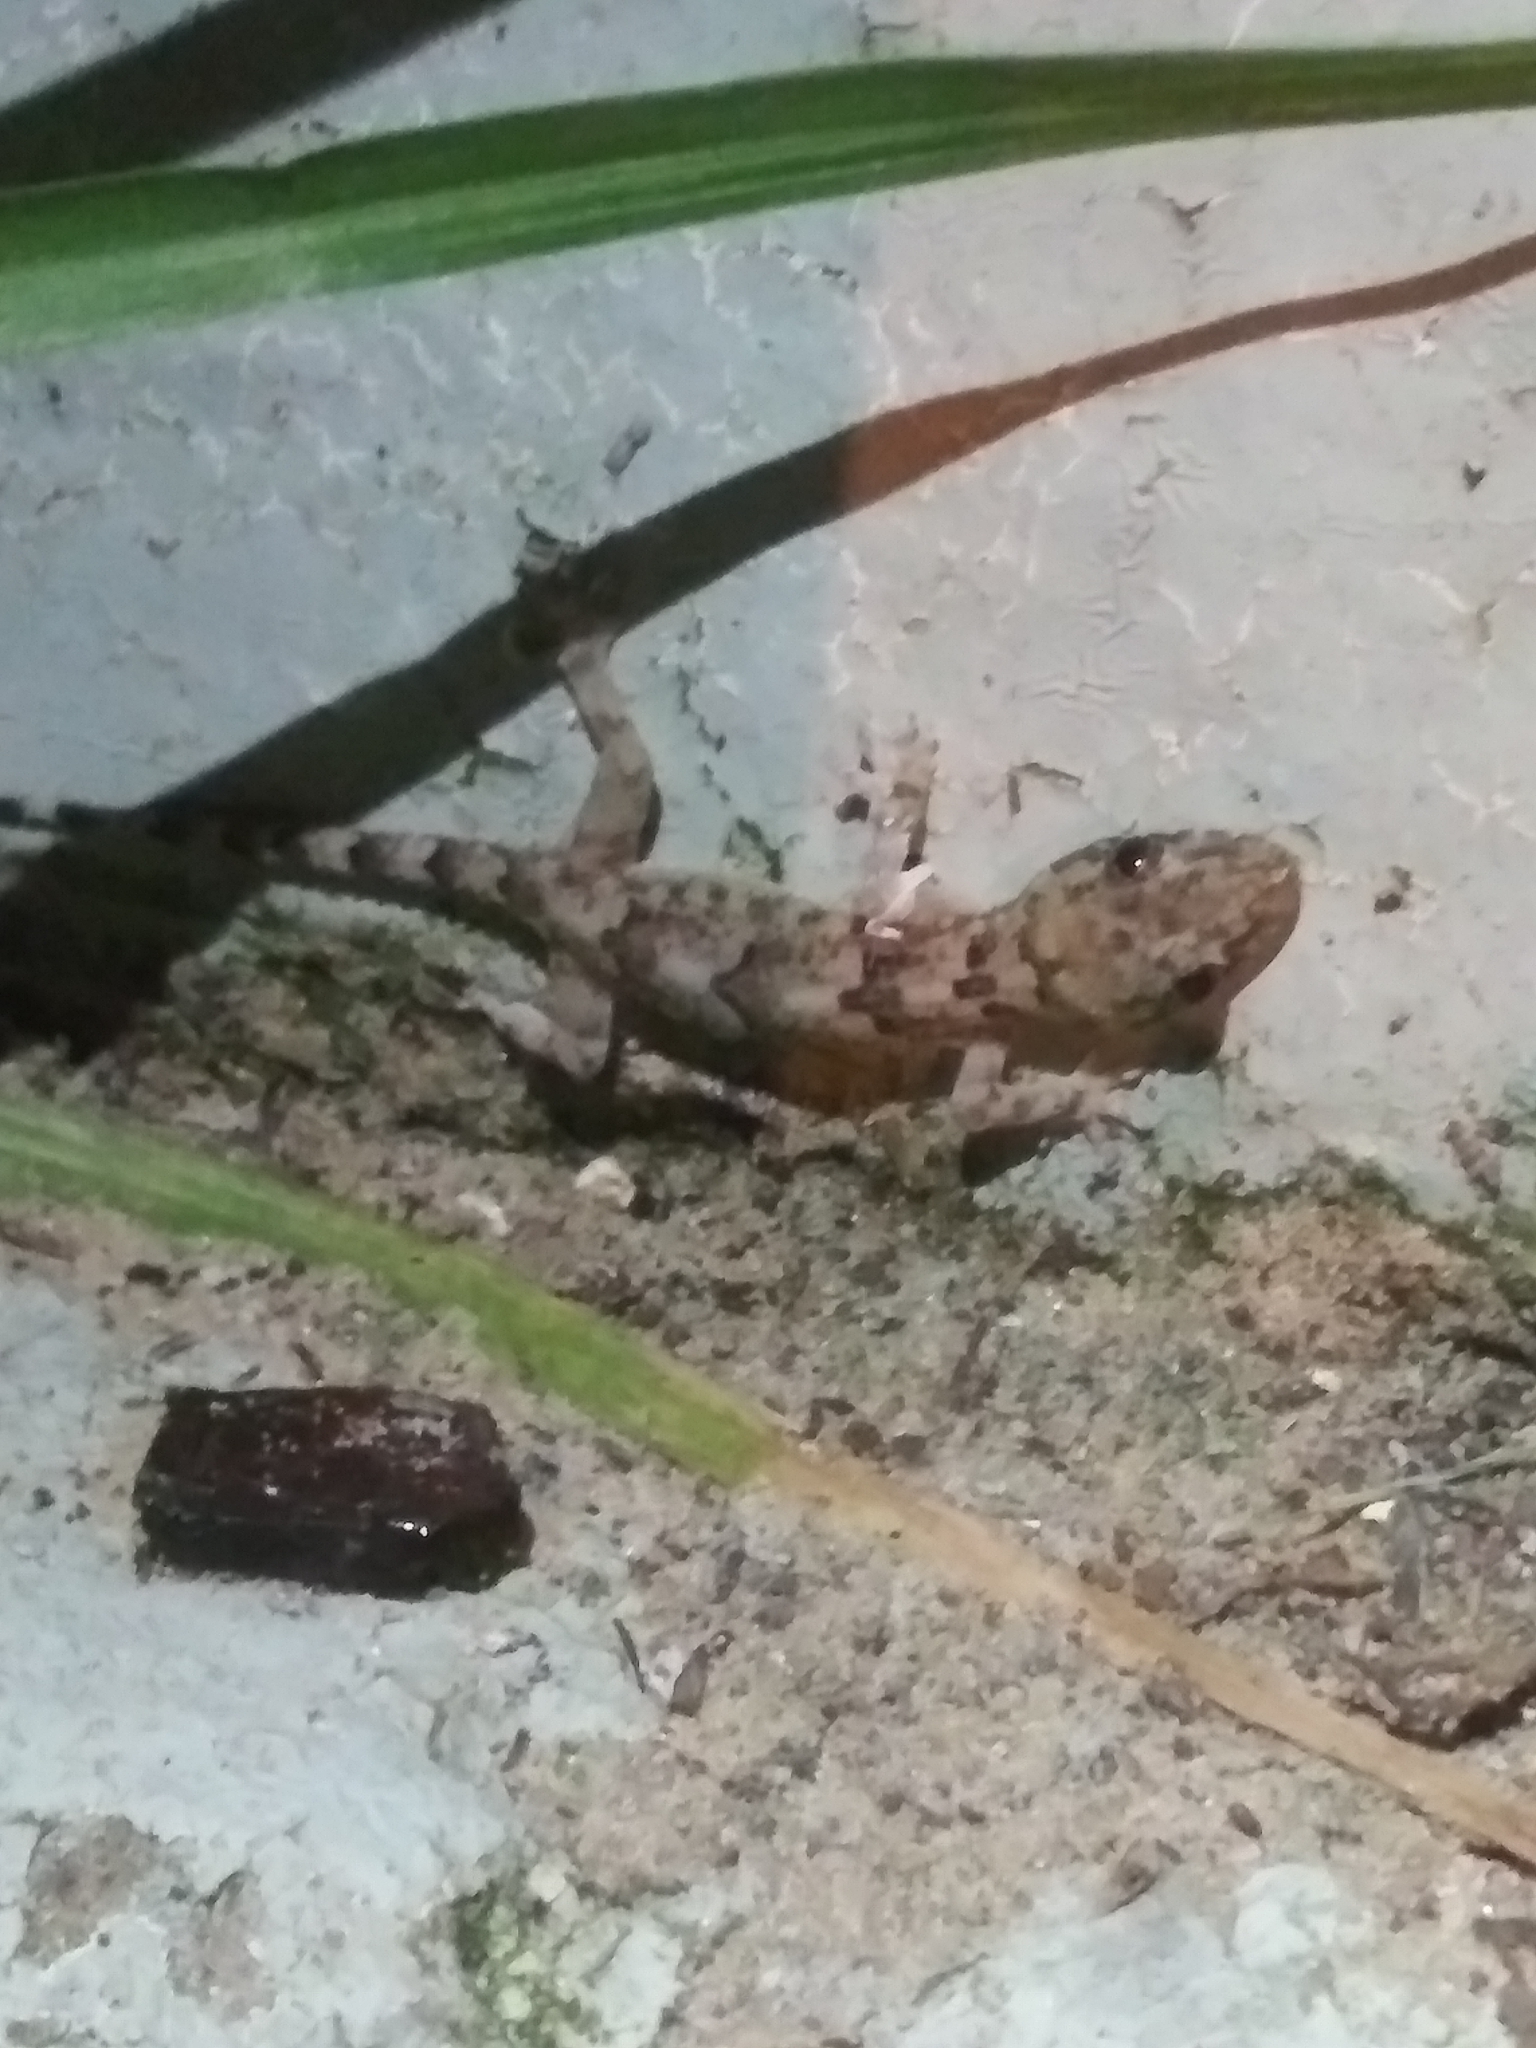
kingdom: Animalia
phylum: Chordata
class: Squamata
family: Gekkonidae
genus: Hemidactylus
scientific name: Hemidactylus mabouia
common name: House gecko
